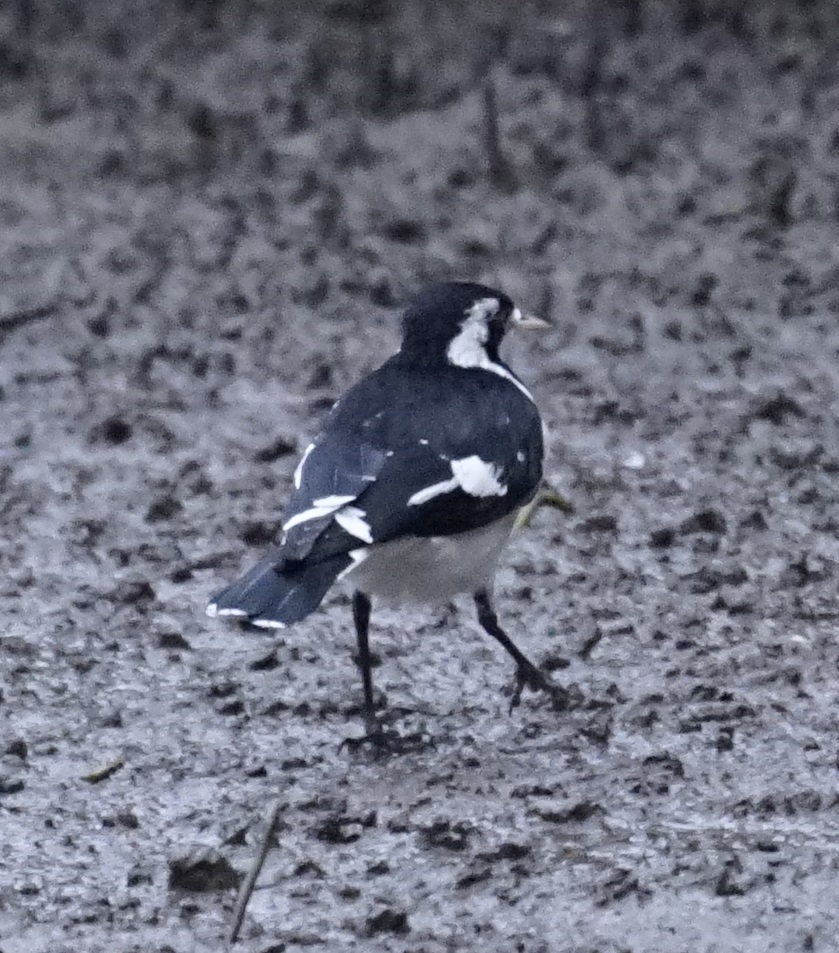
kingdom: Animalia
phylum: Chordata
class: Aves
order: Passeriformes
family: Monarchidae
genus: Grallina
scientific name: Grallina cyanoleuca
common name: Magpie-lark
